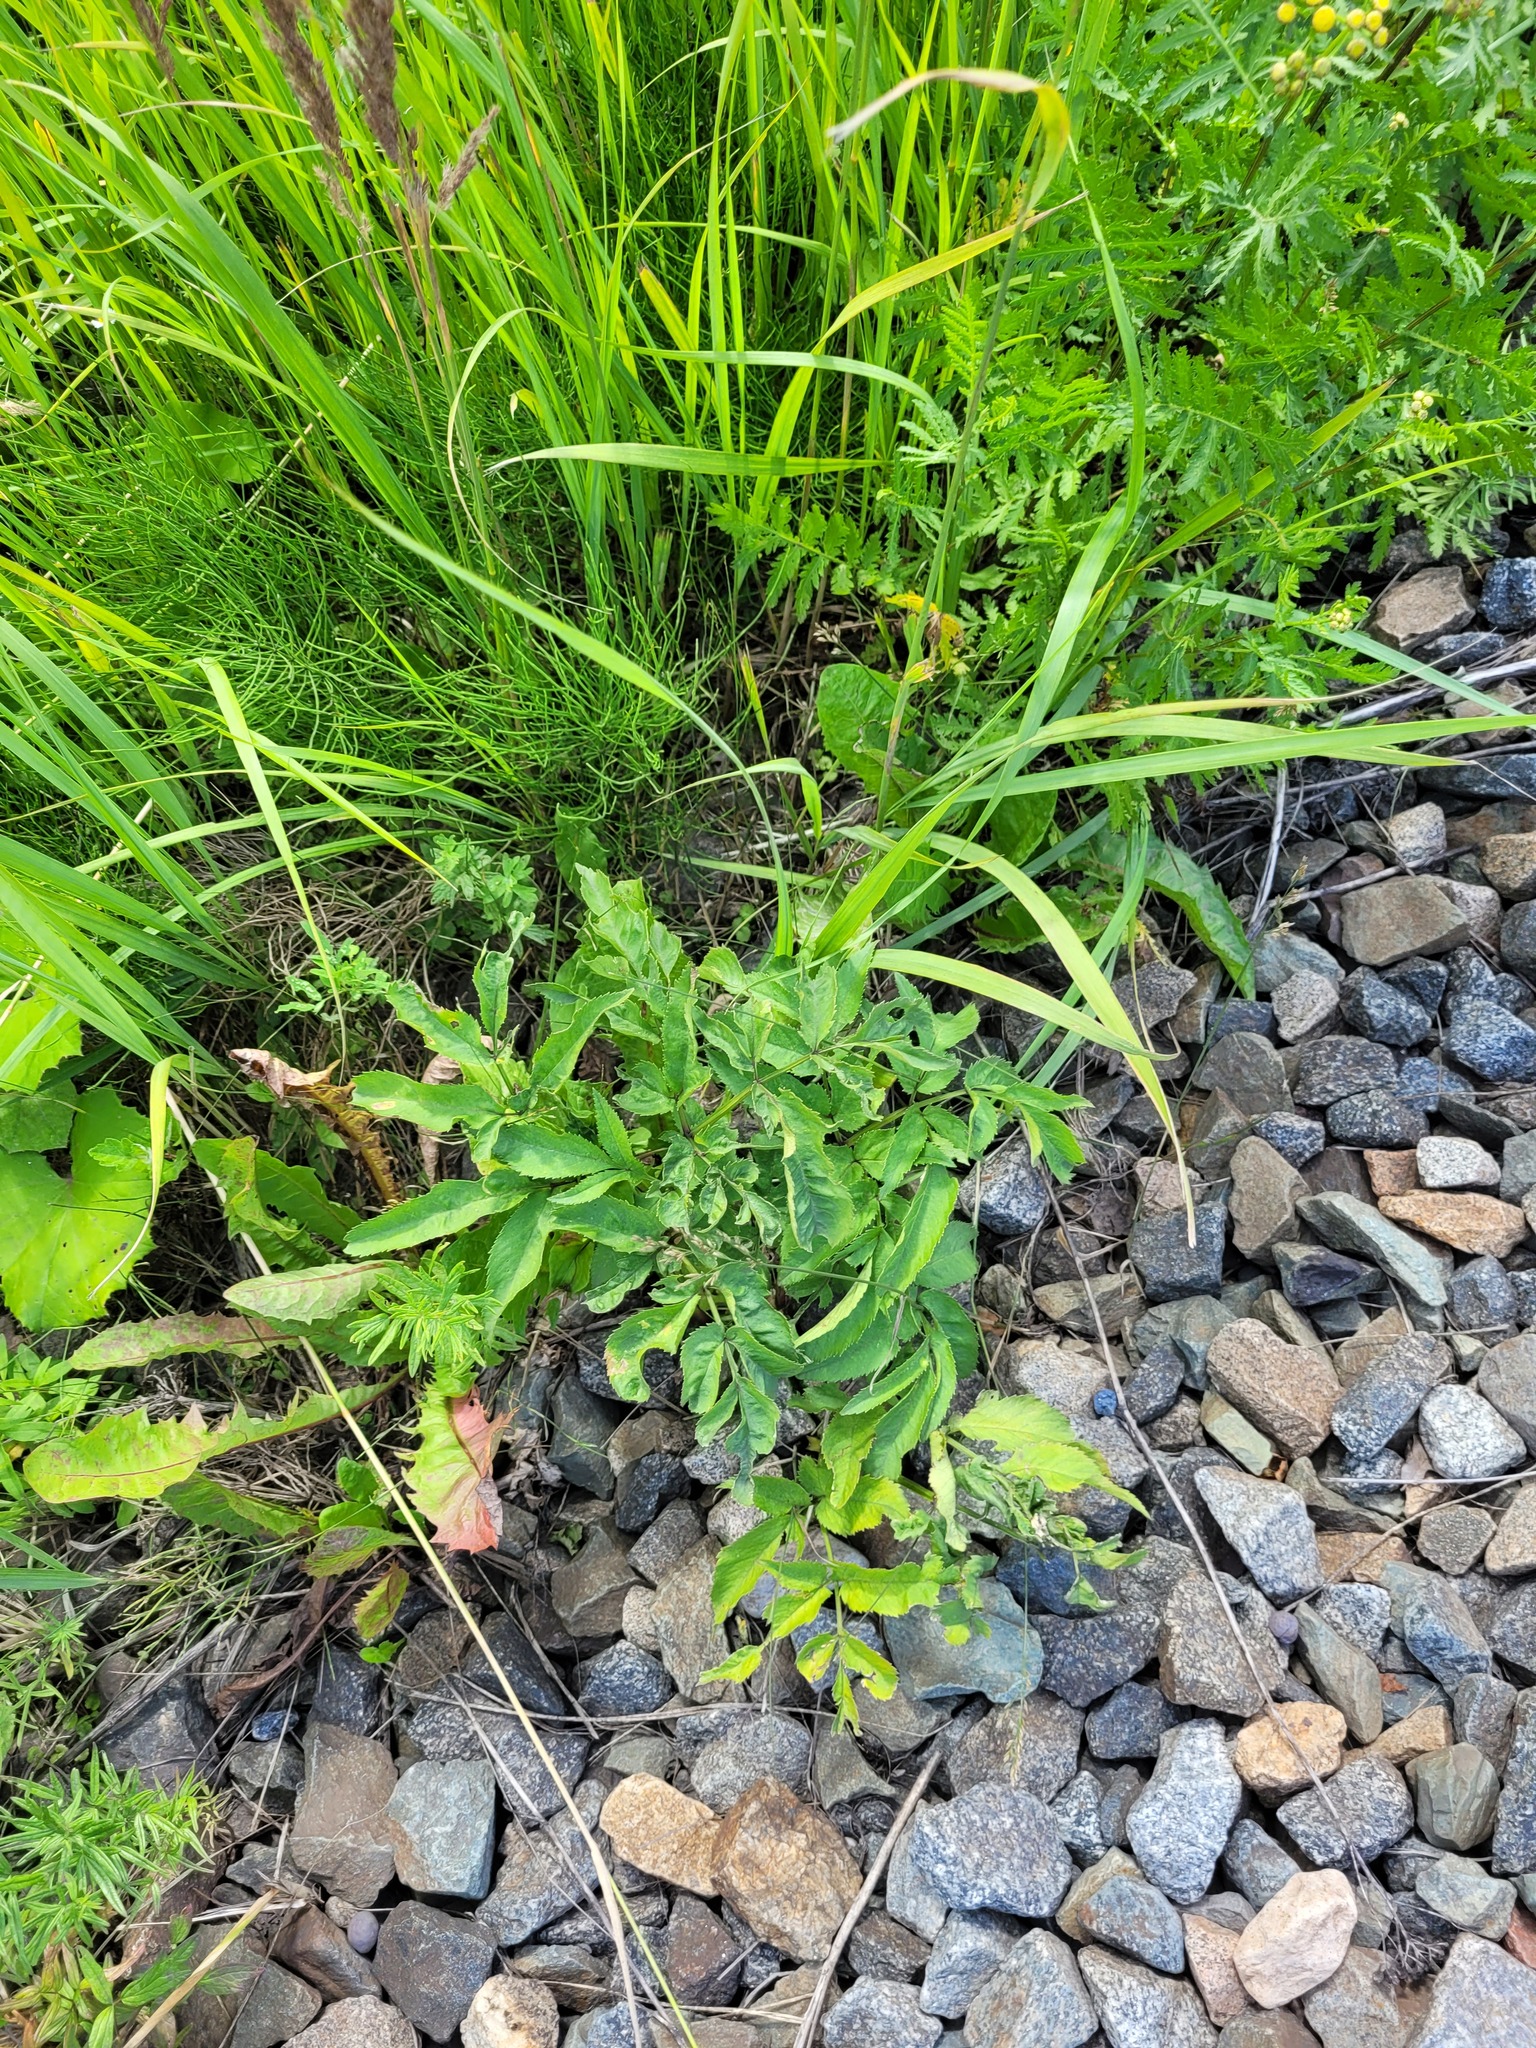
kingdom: Plantae
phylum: Tracheophyta
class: Magnoliopsida
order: Apiales
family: Apiaceae
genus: Angelica
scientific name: Angelica sylvestris
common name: Wild angelica
